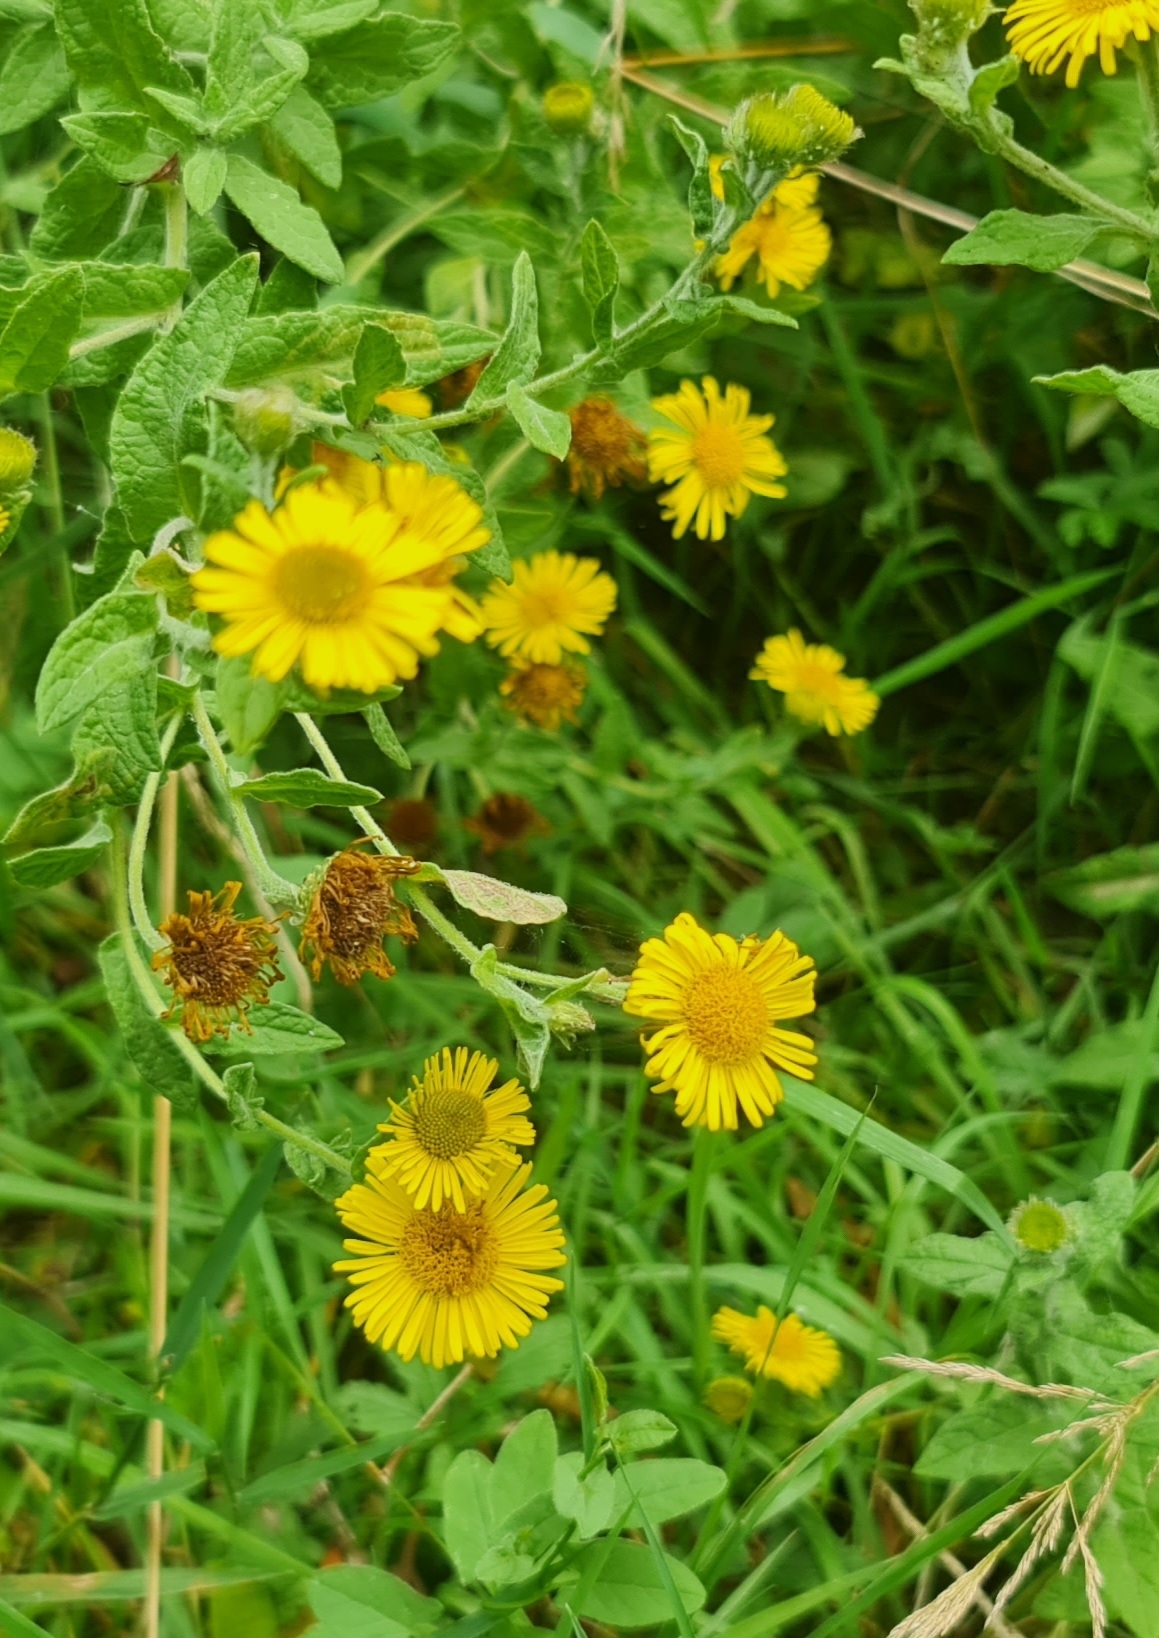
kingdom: Plantae
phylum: Tracheophyta
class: Magnoliopsida
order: Asterales
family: Asteraceae
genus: Pulicaria
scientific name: Pulicaria dysenterica
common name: Common fleabane
